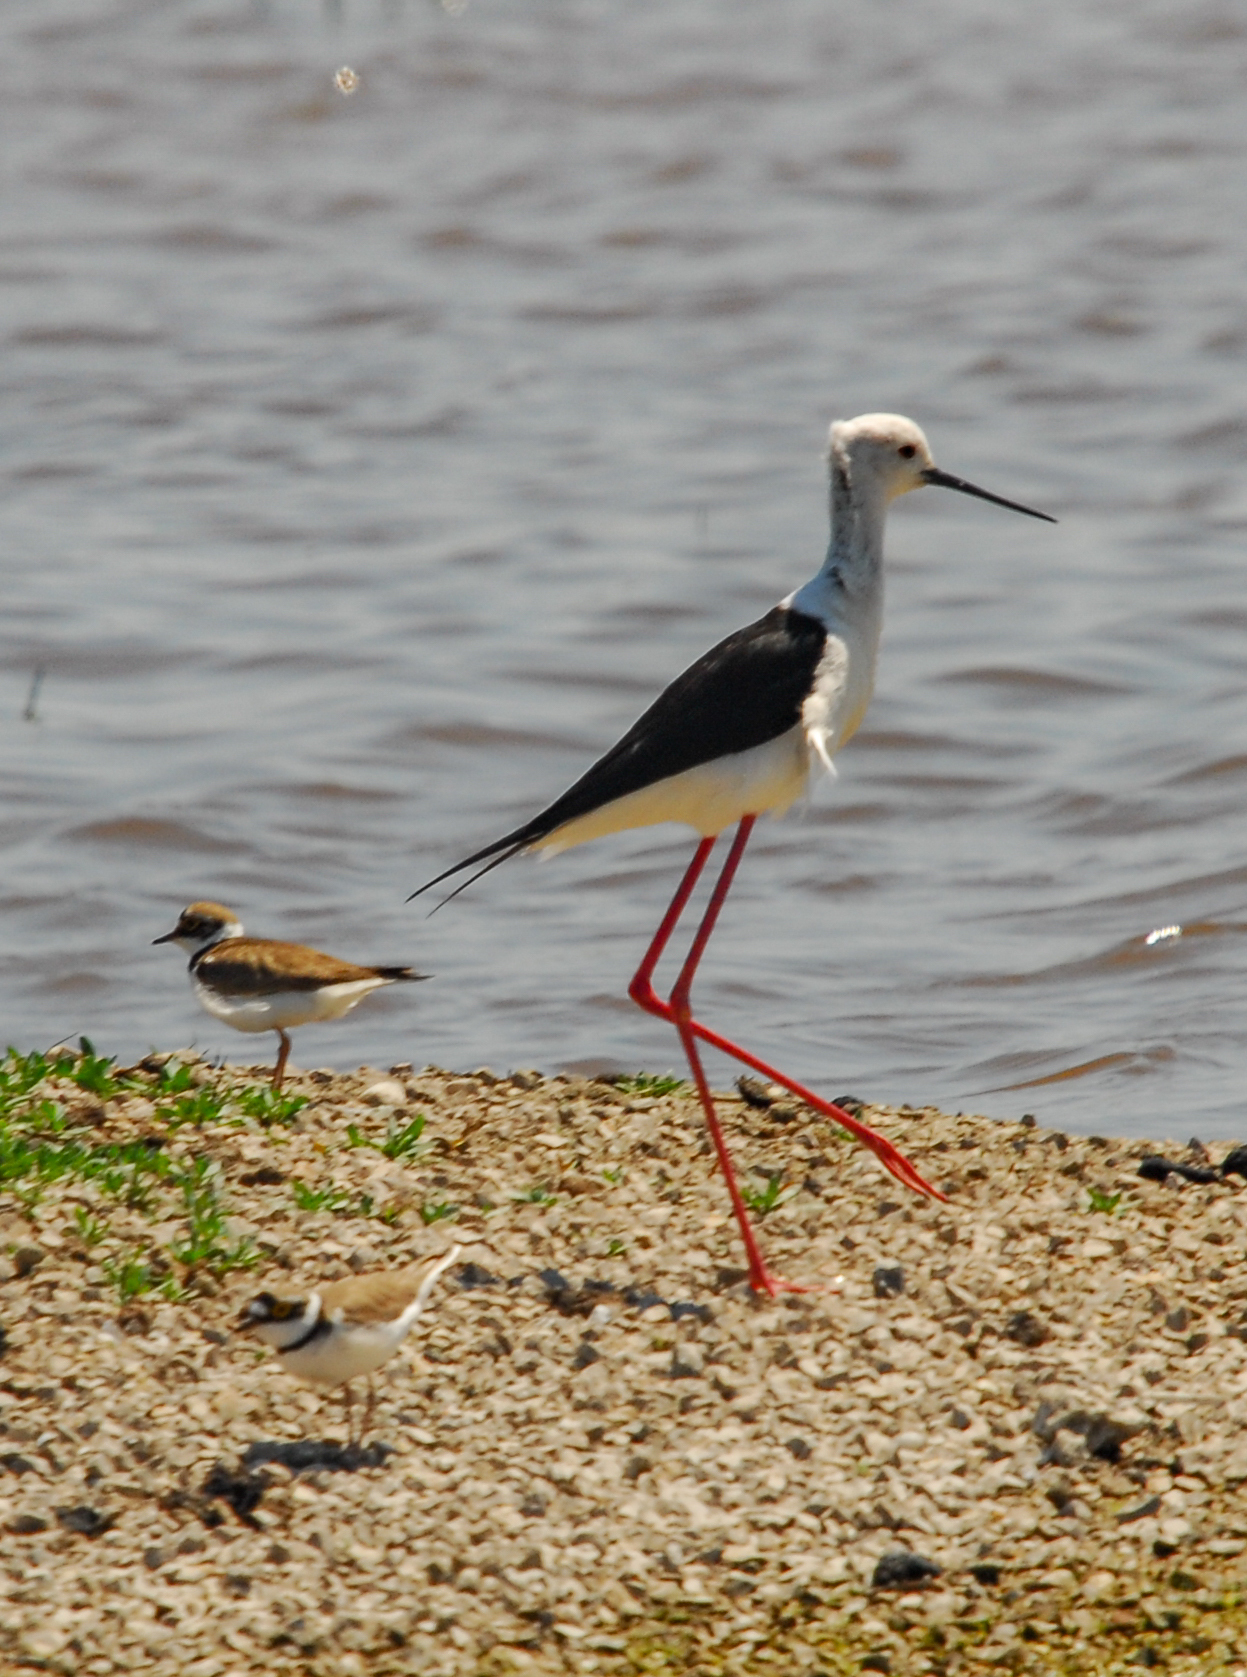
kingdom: Animalia
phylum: Chordata
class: Aves
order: Charadriiformes
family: Recurvirostridae
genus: Himantopus
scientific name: Himantopus himantopus
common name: Black-winged stilt
